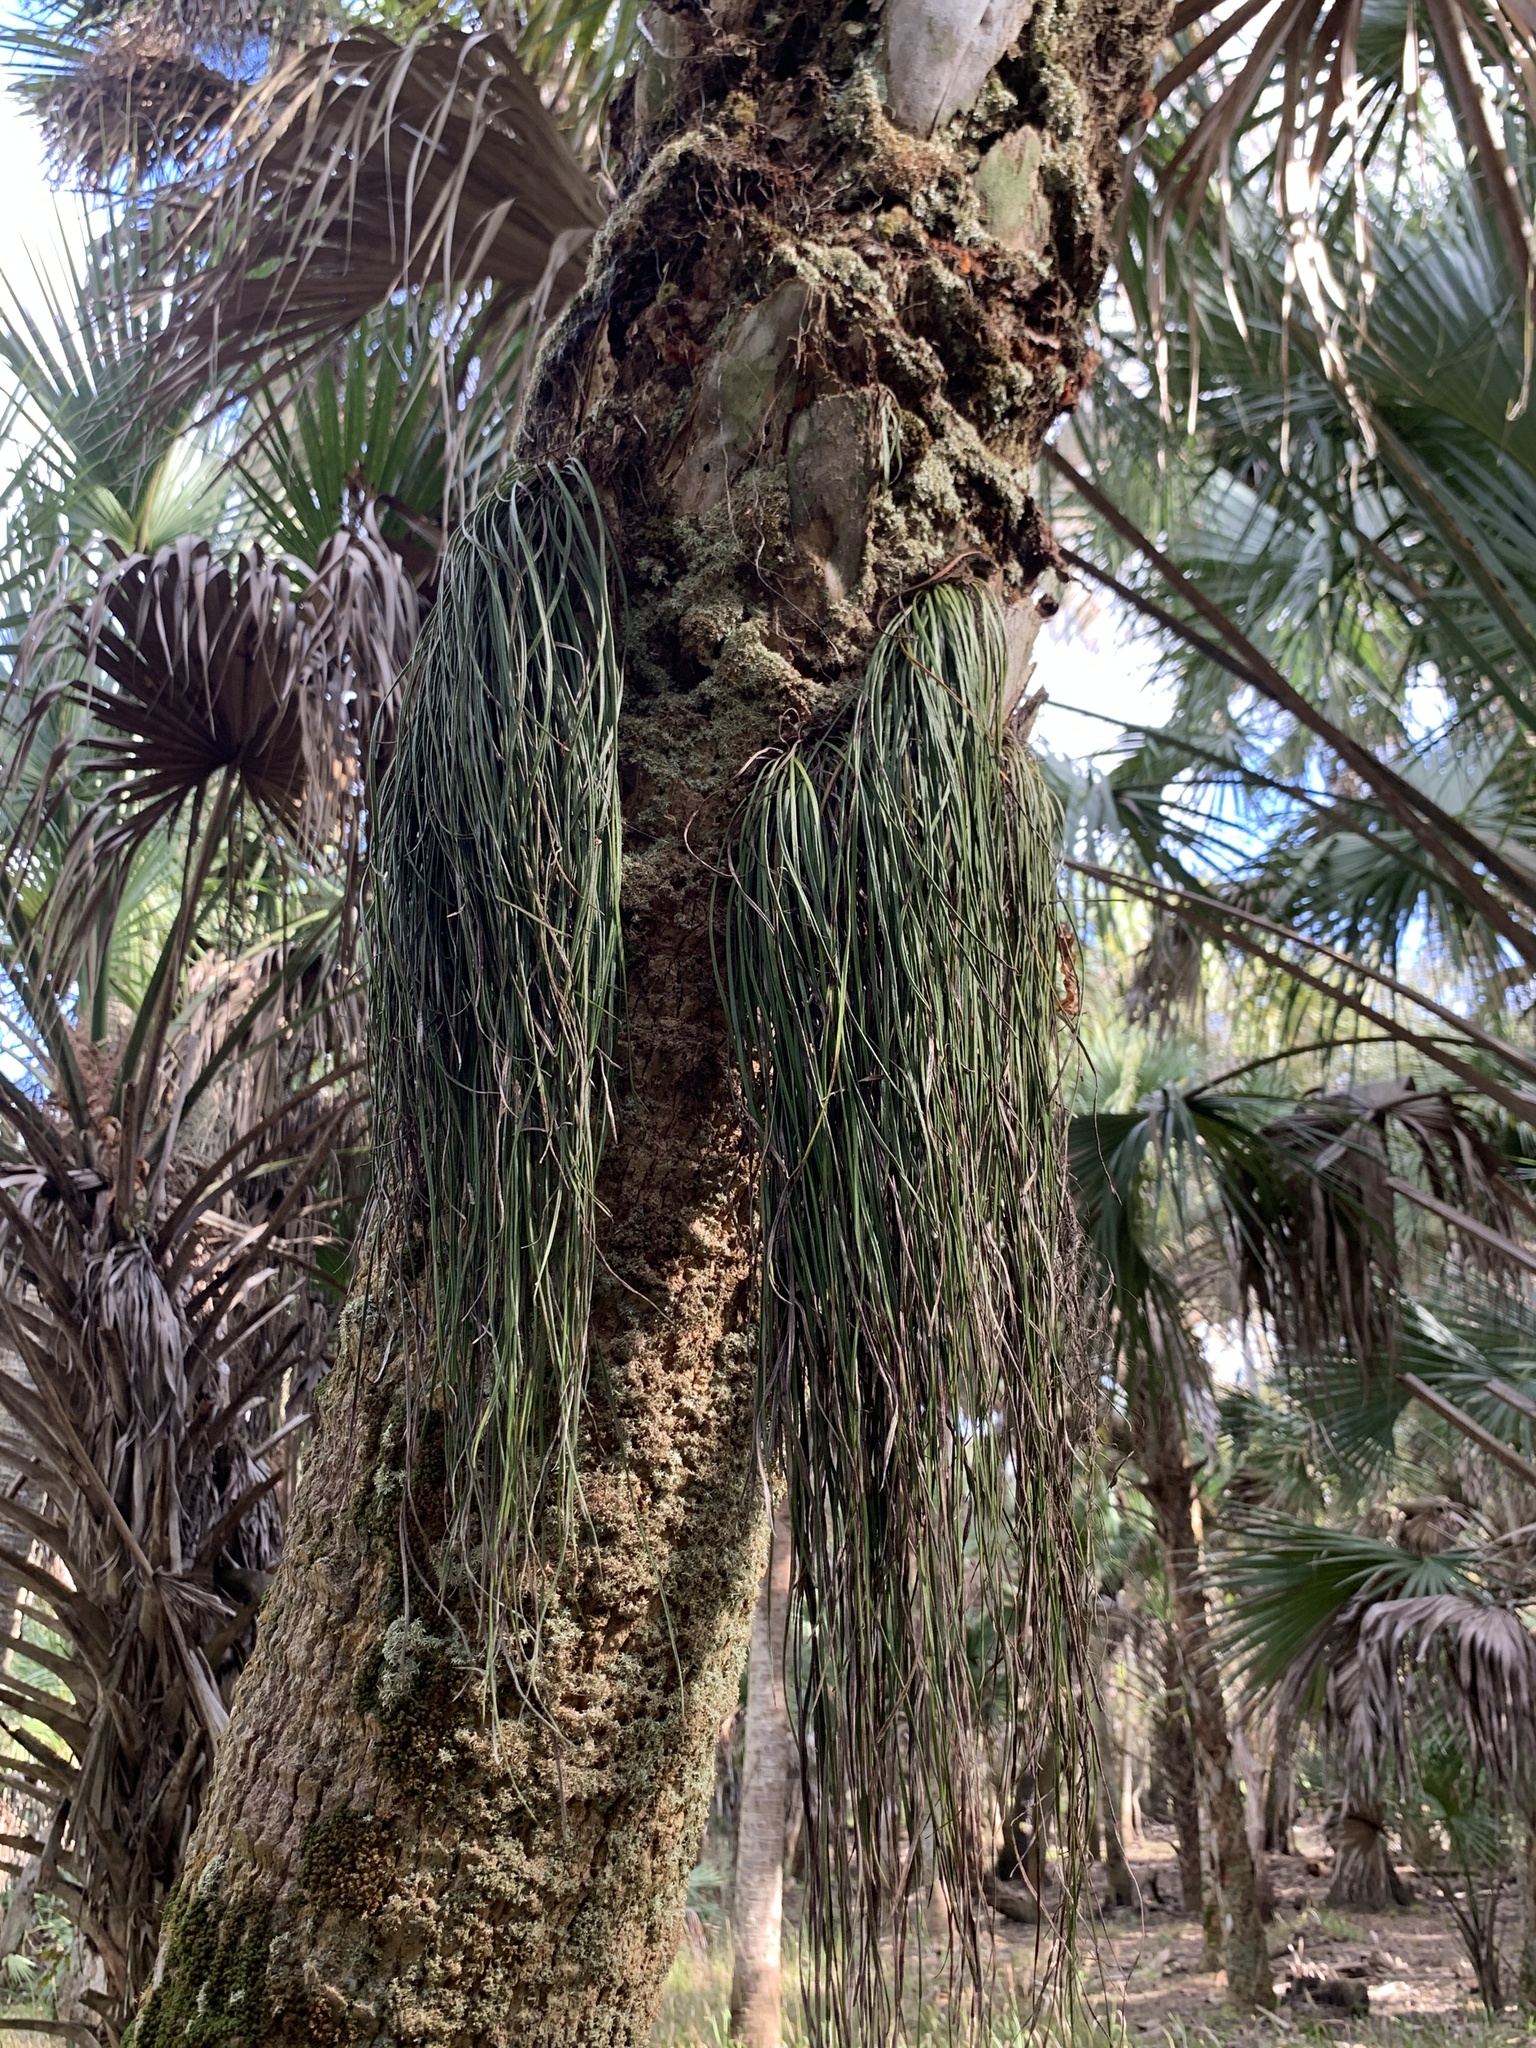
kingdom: Plantae
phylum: Tracheophyta
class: Polypodiopsida
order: Polypodiales
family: Pteridaceae
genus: Vittaria
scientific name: Vittaria lineata
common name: Shoestring fern
